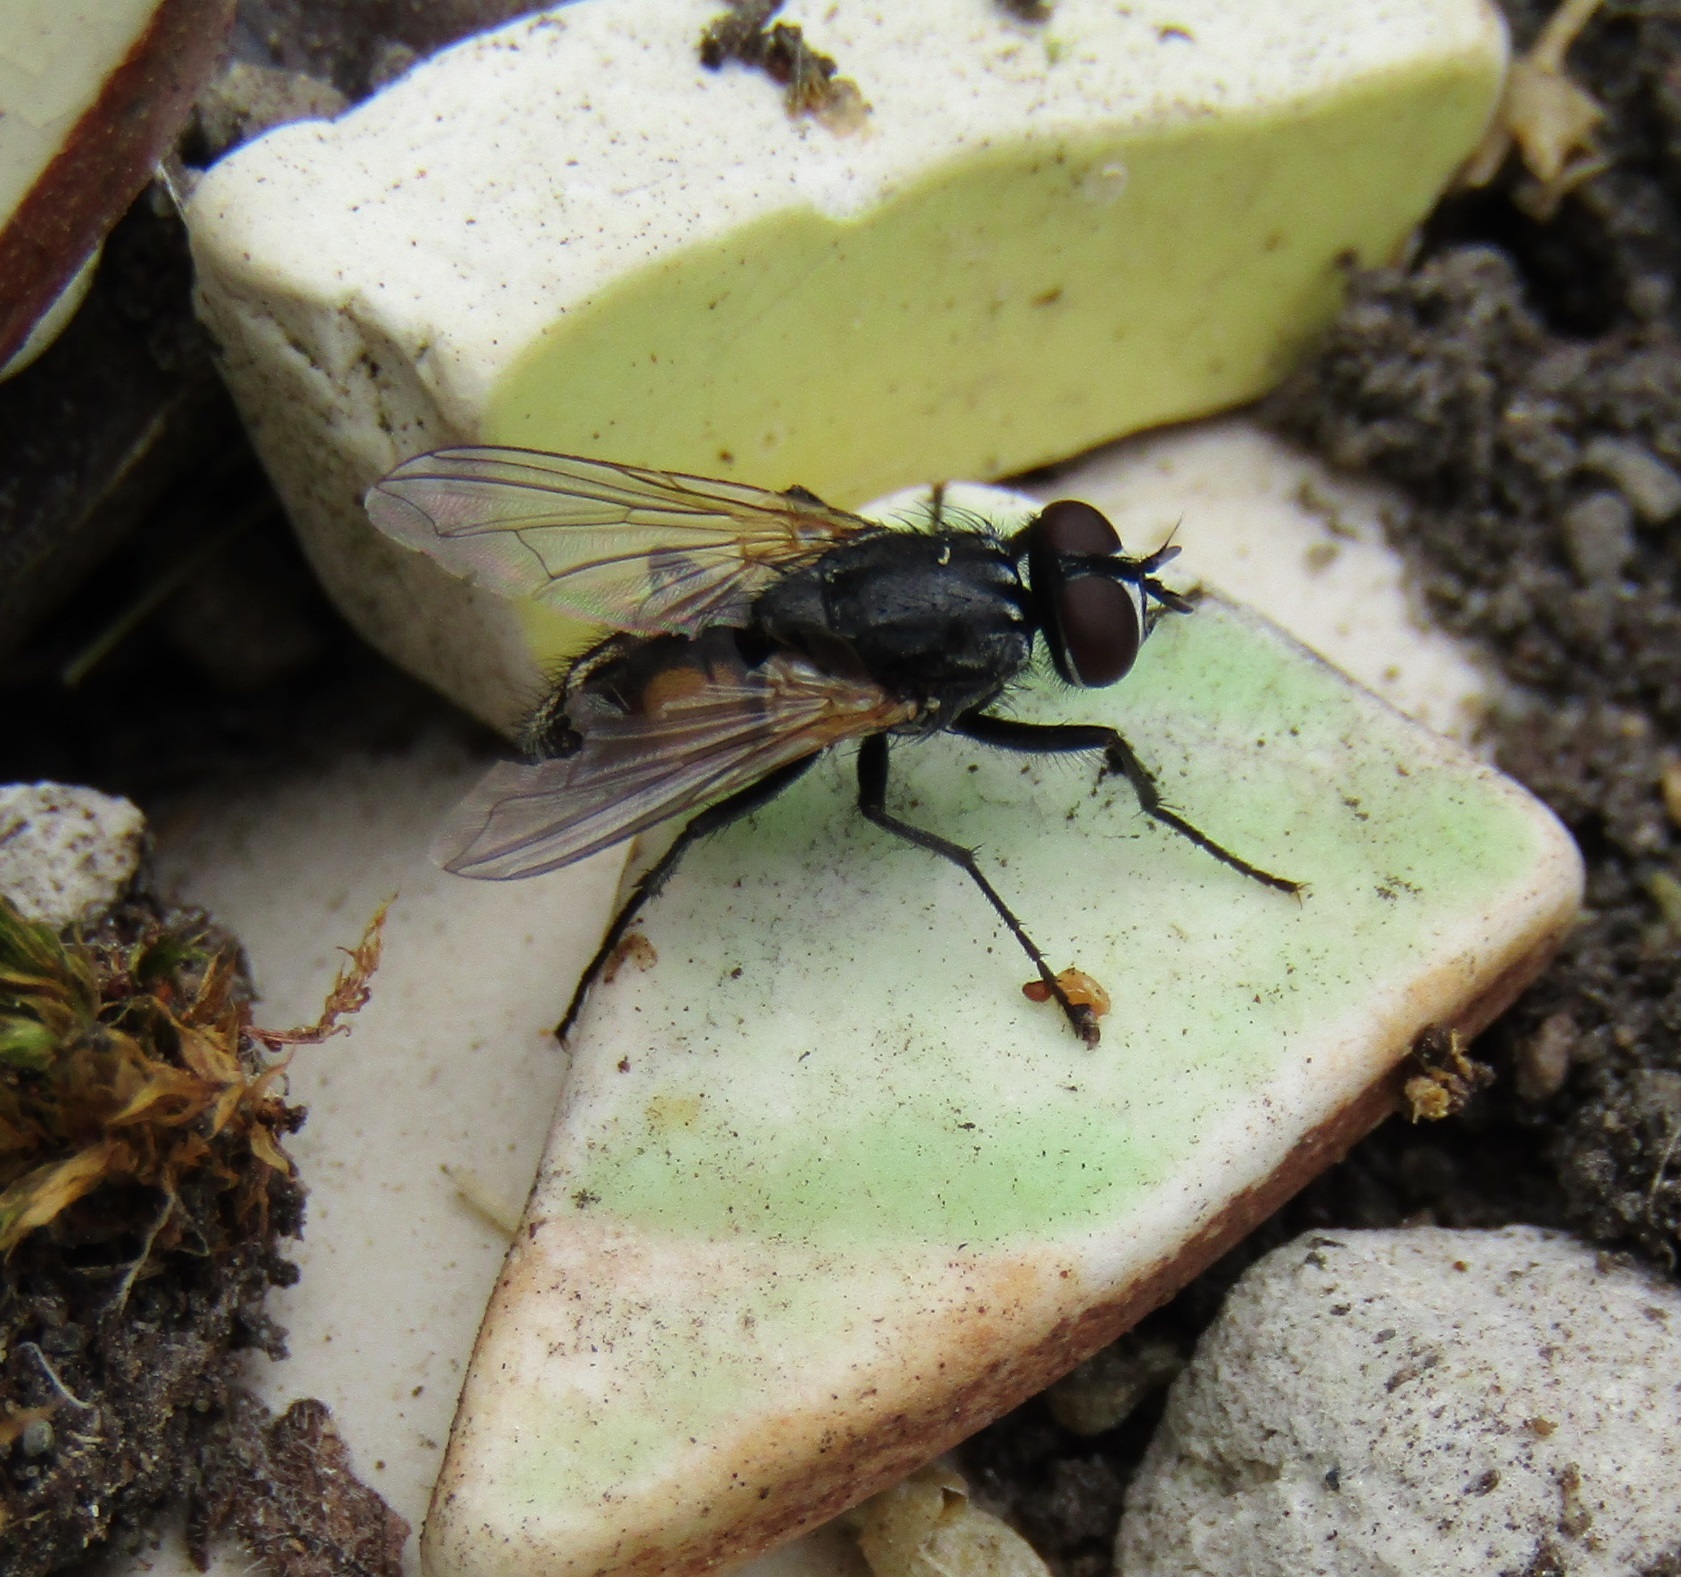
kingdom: Animalia
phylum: Arthropoda
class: Insecta
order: Diptera
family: Muscidae
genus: Musca
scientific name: Musca domestica
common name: House fly
